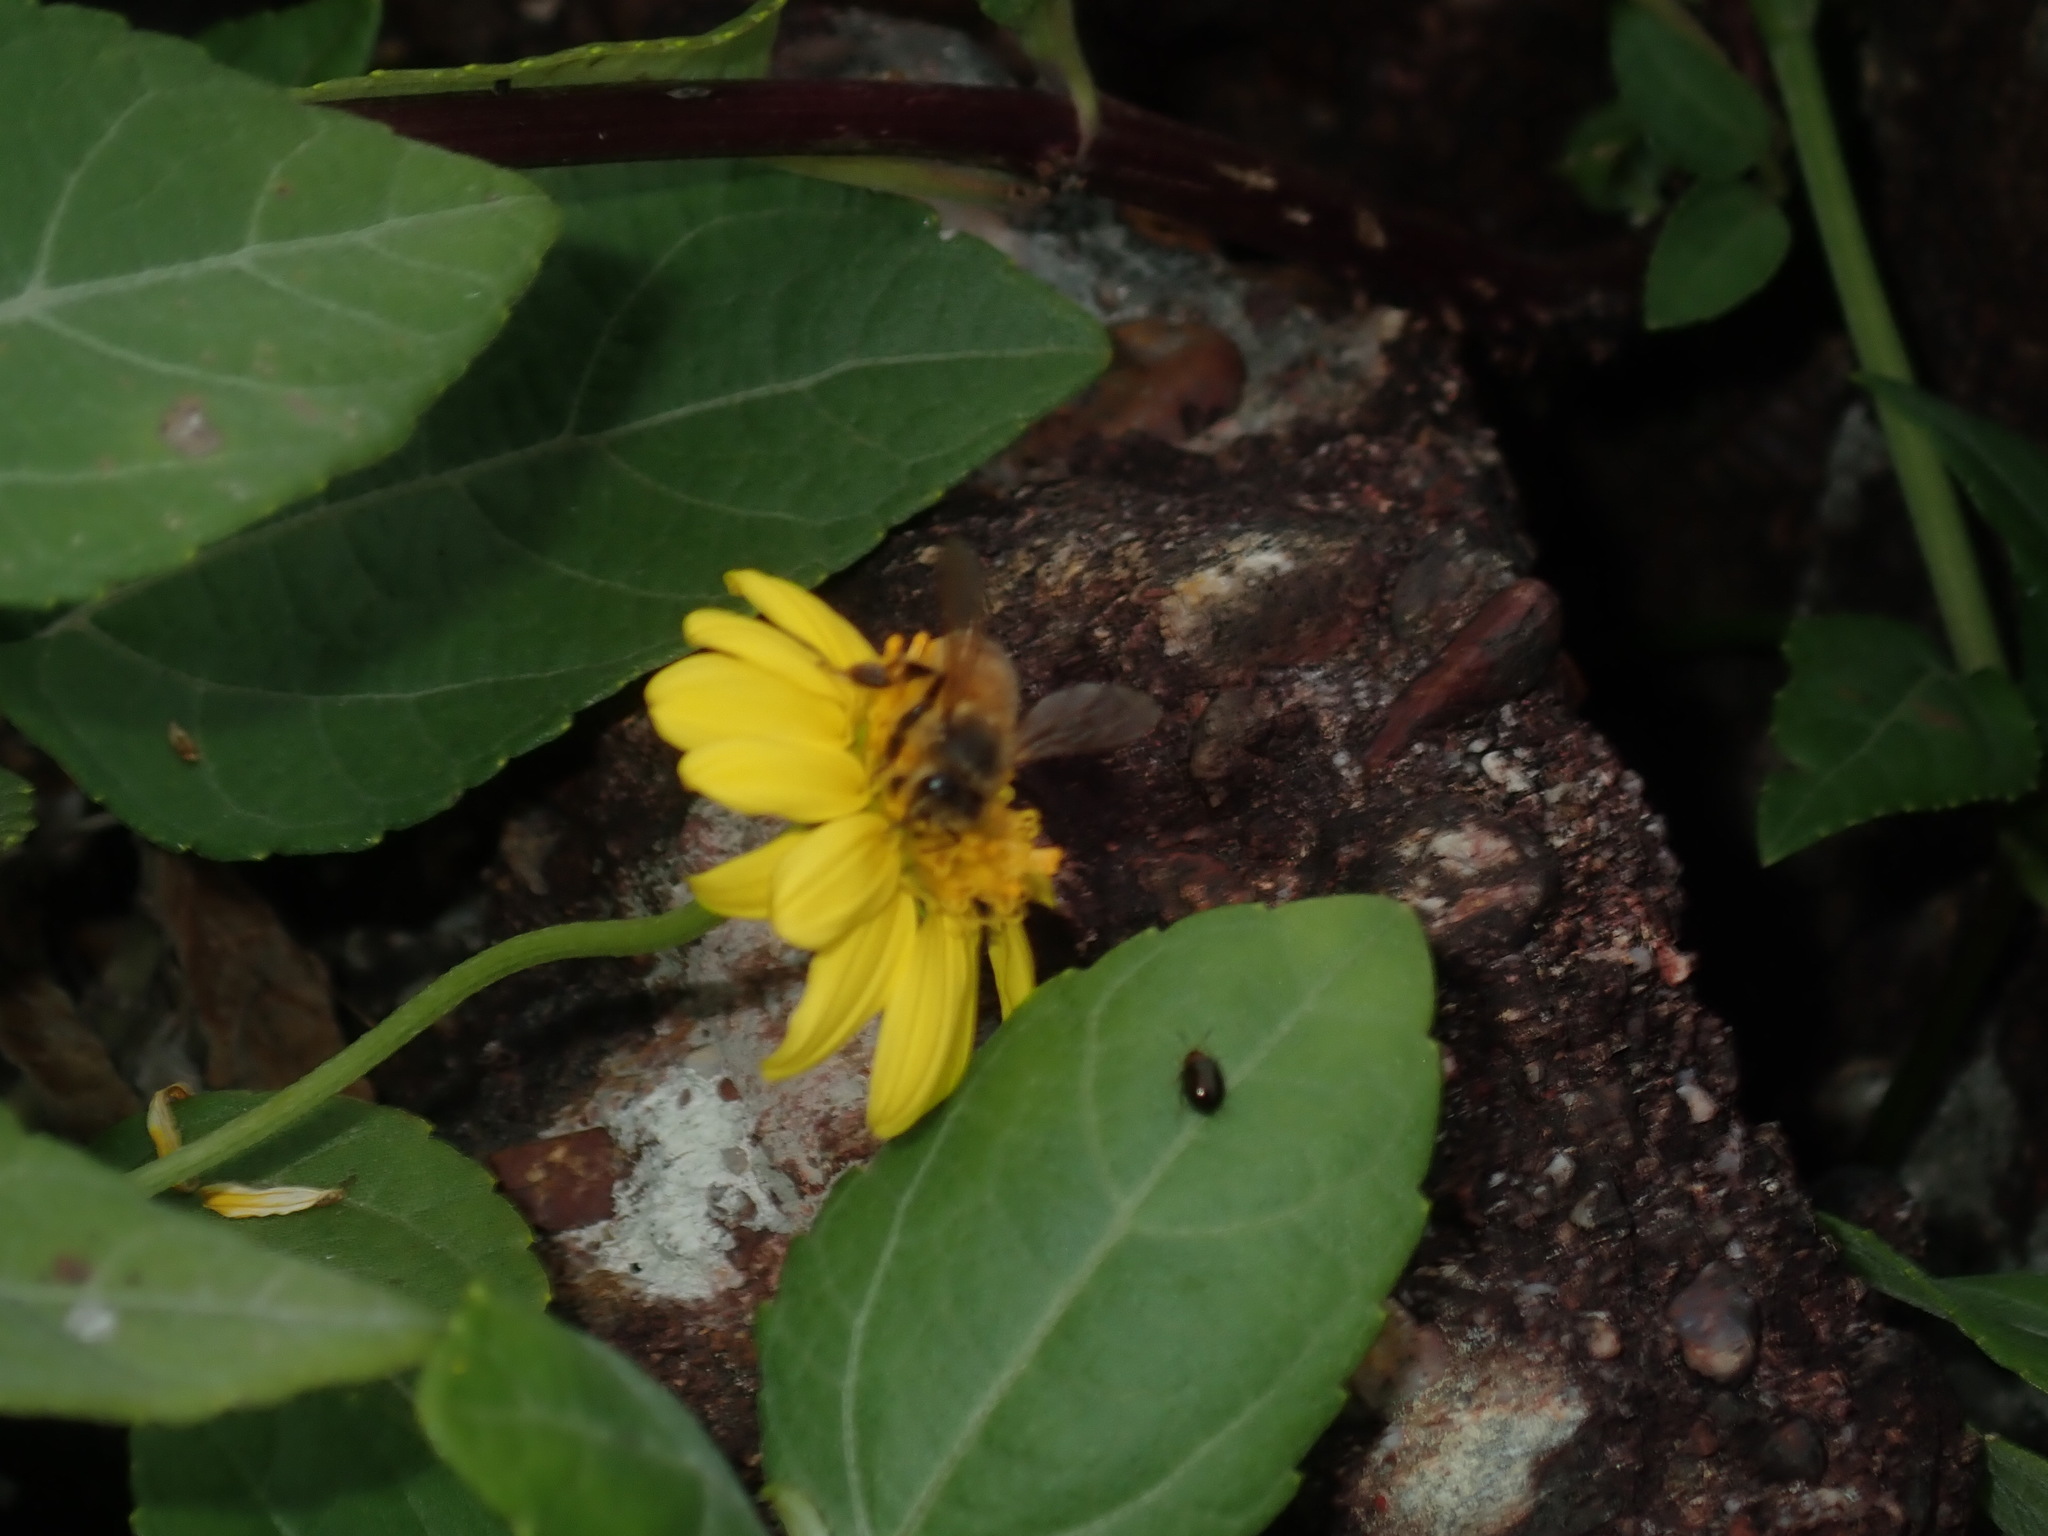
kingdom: Animalia
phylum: Arthropoda
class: Insecta
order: Hymenoptera
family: Apidae
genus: Apis
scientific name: Apis mellifera
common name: Honey bee
